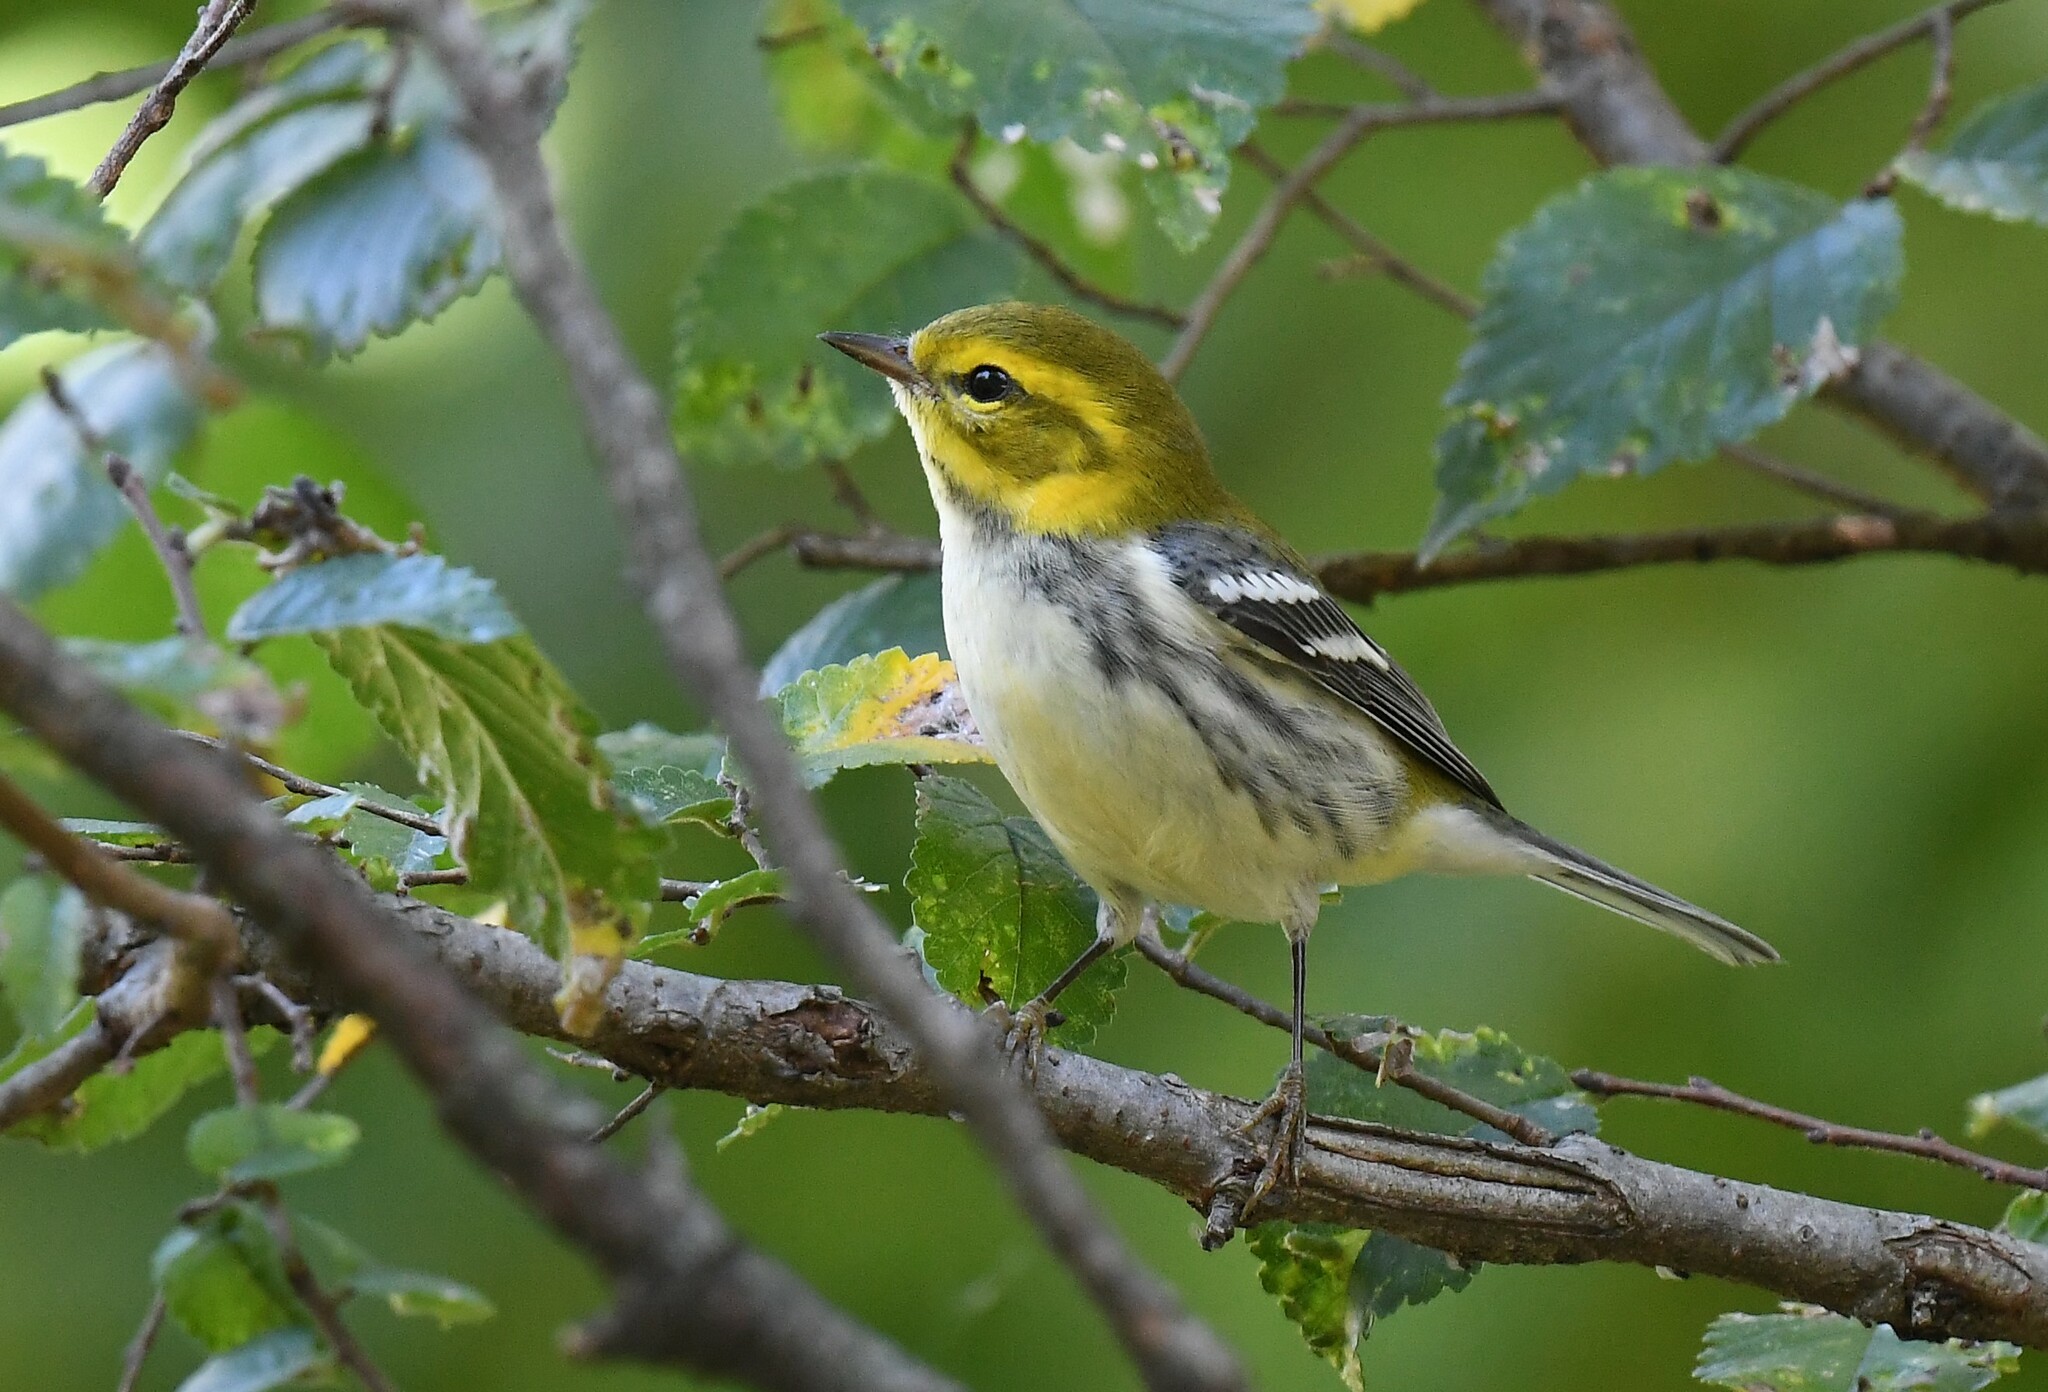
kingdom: Animalia
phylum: Chordata
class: Aves
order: Passeriformes
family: Parulidae
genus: Setophaga
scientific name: Setophaga virens
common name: Black-throated green warbler
